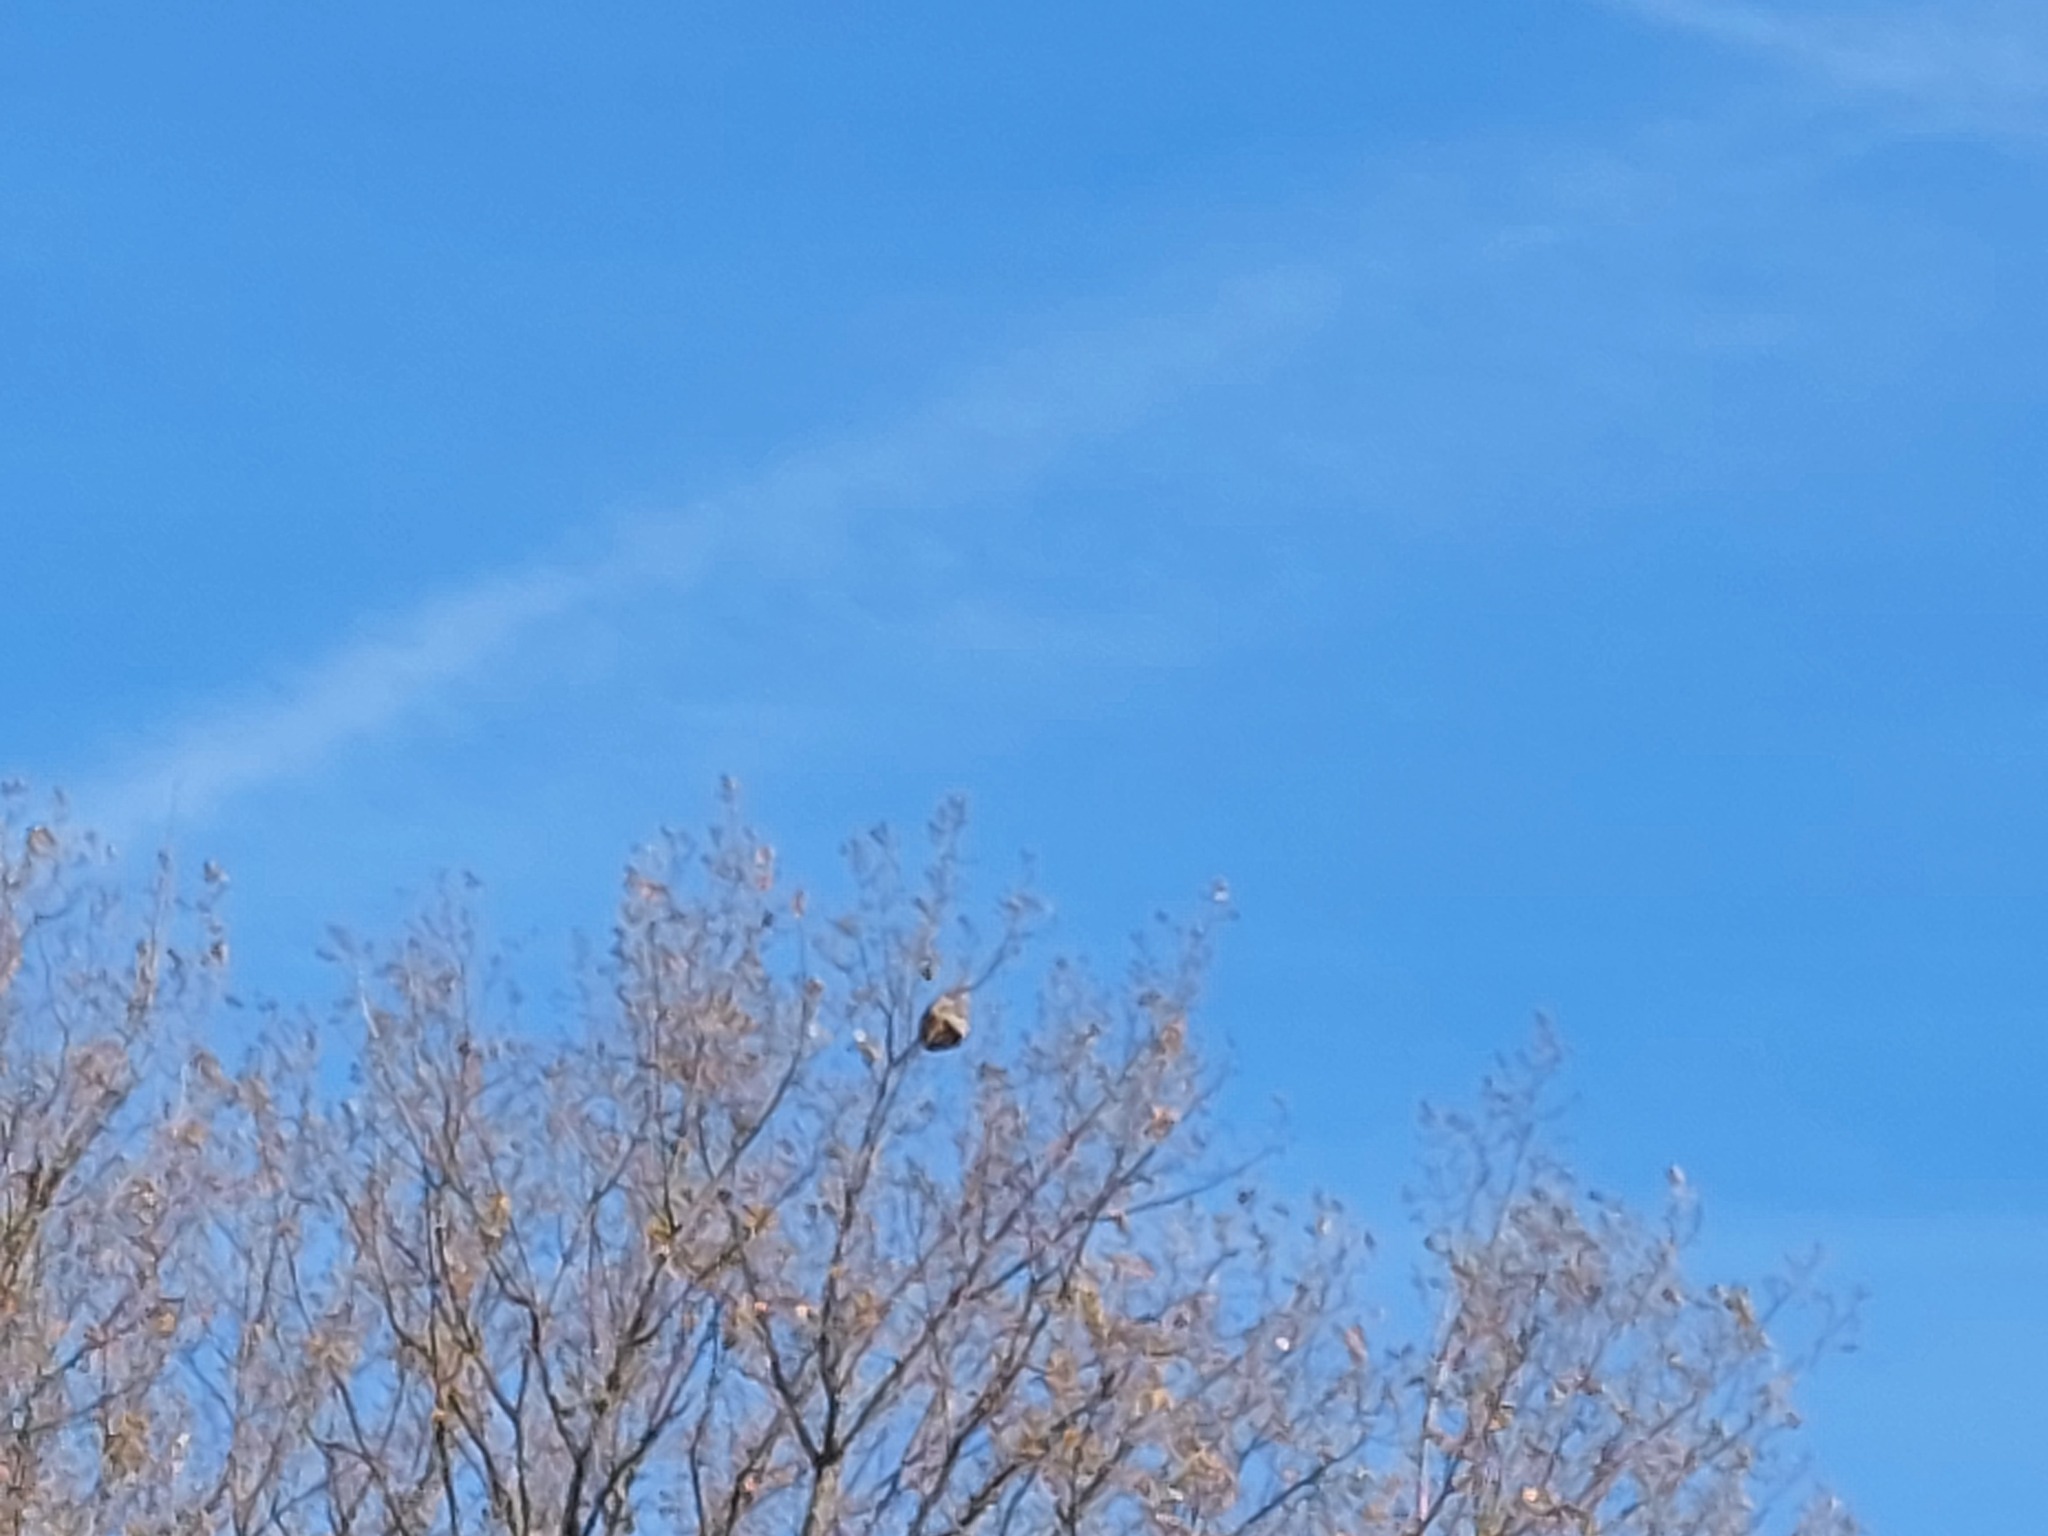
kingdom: Animalia
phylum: Arthropoda
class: Insecta
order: Hymenoptera
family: Vespidae
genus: Vespa
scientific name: Vespa velutina
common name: Asian hornet
